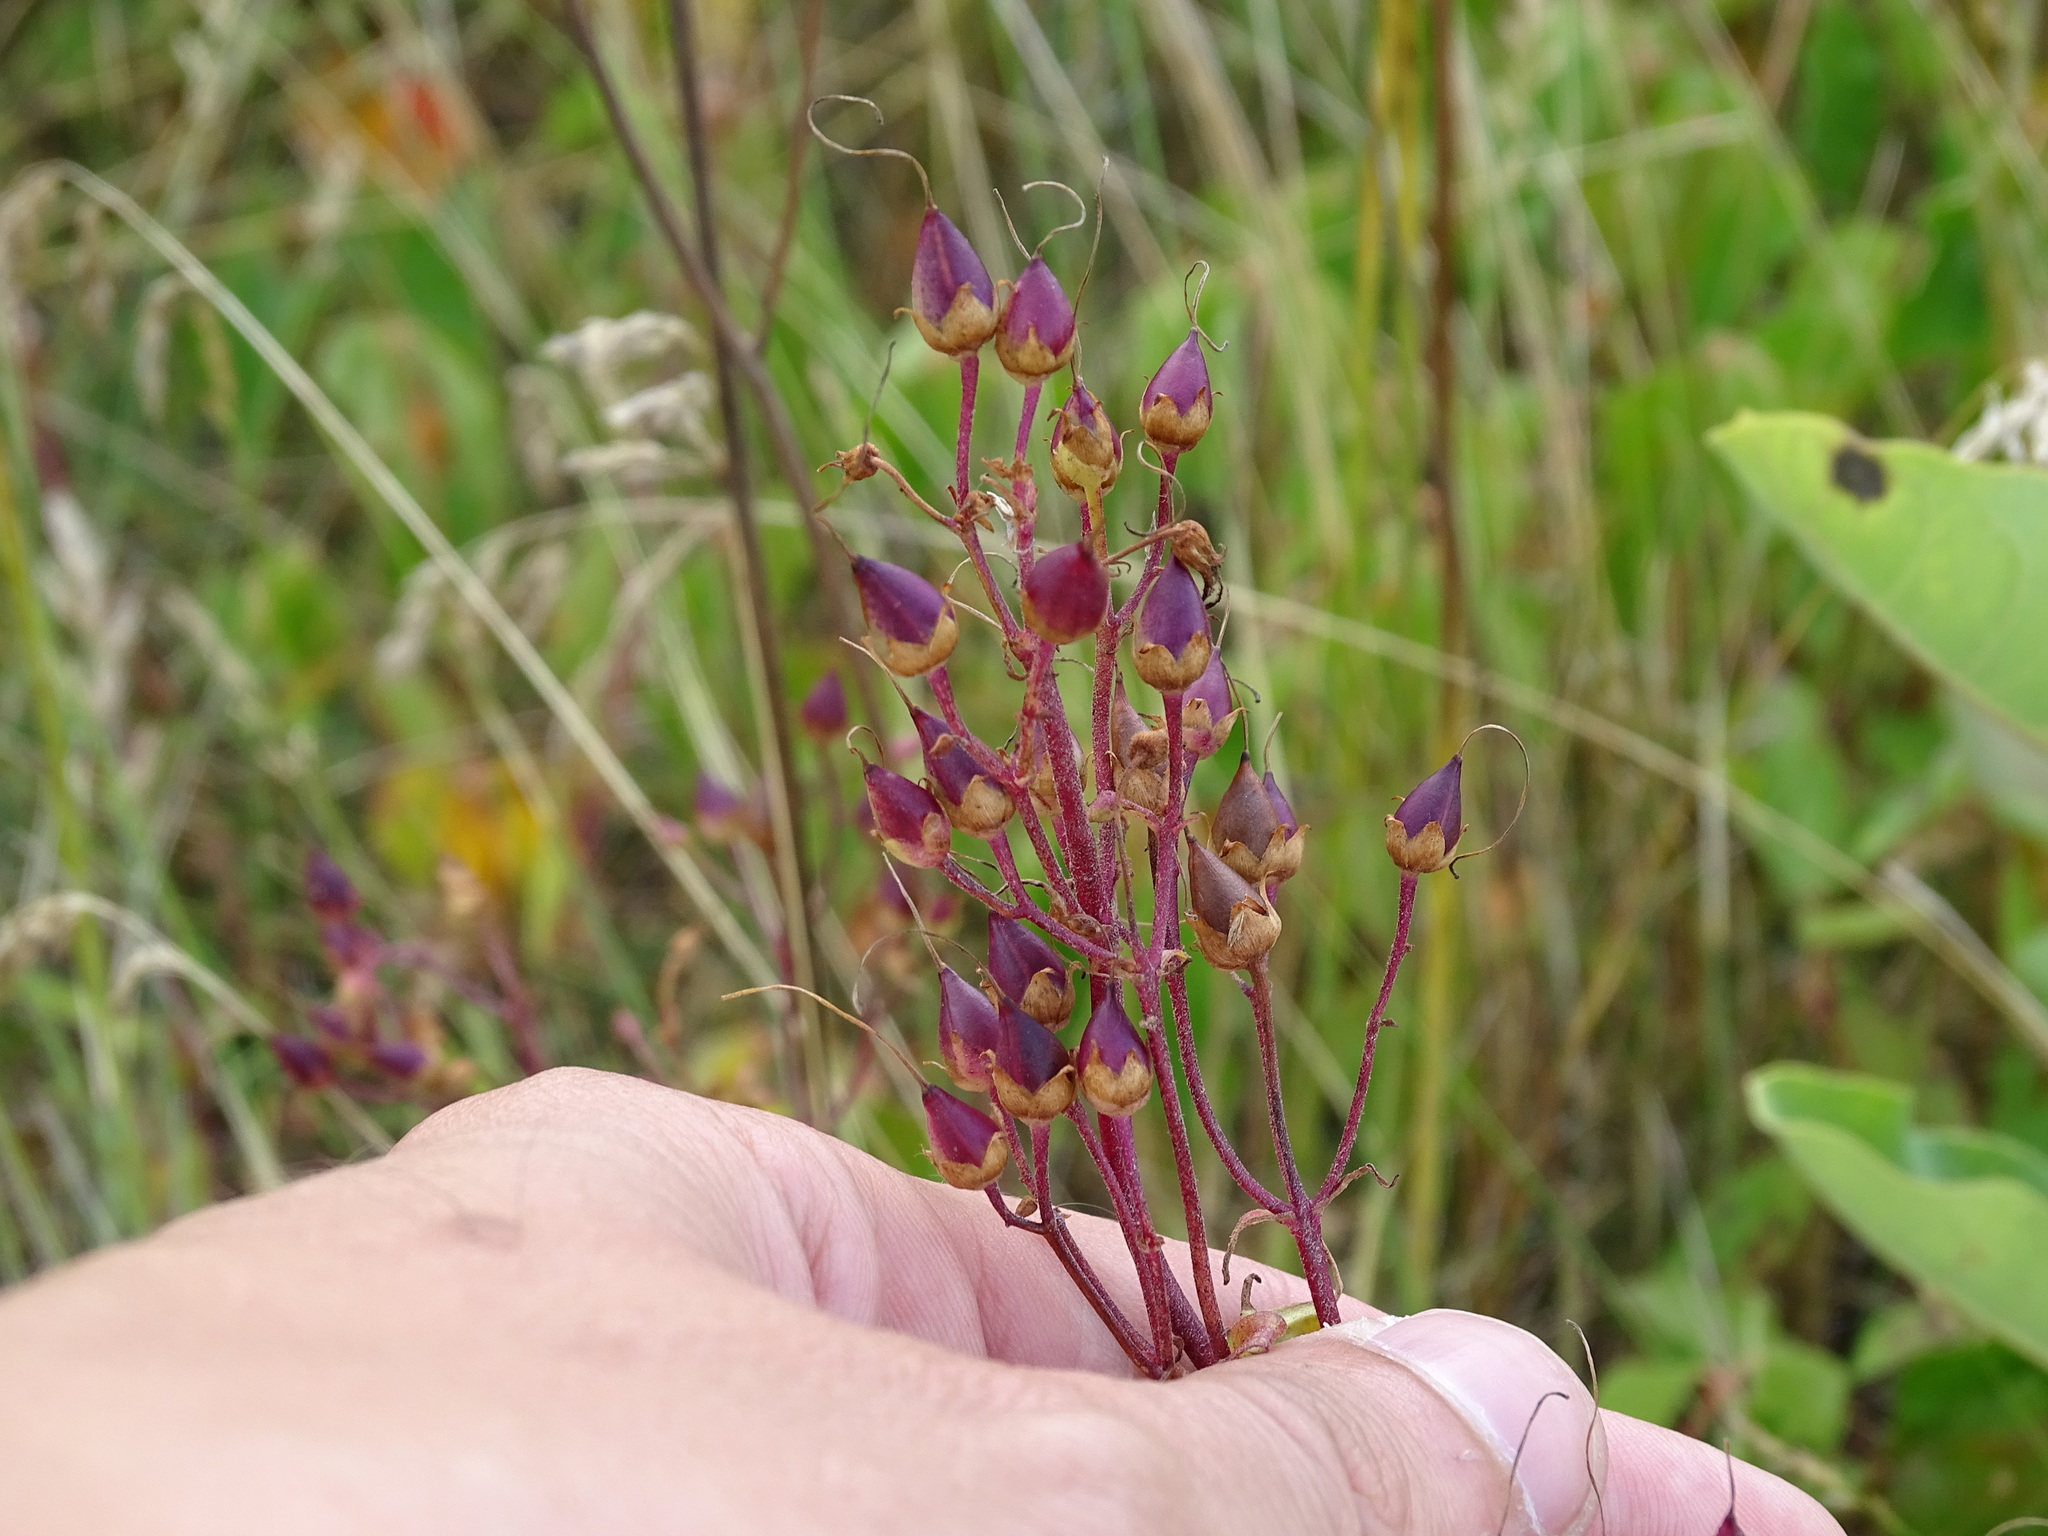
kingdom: Plantae
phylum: Tracheophyta
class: Magnoliopsida
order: Lamiales
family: Plantaginaceae
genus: Penstemon
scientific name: Penstemon digitalis
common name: Foxglove beardtongue
